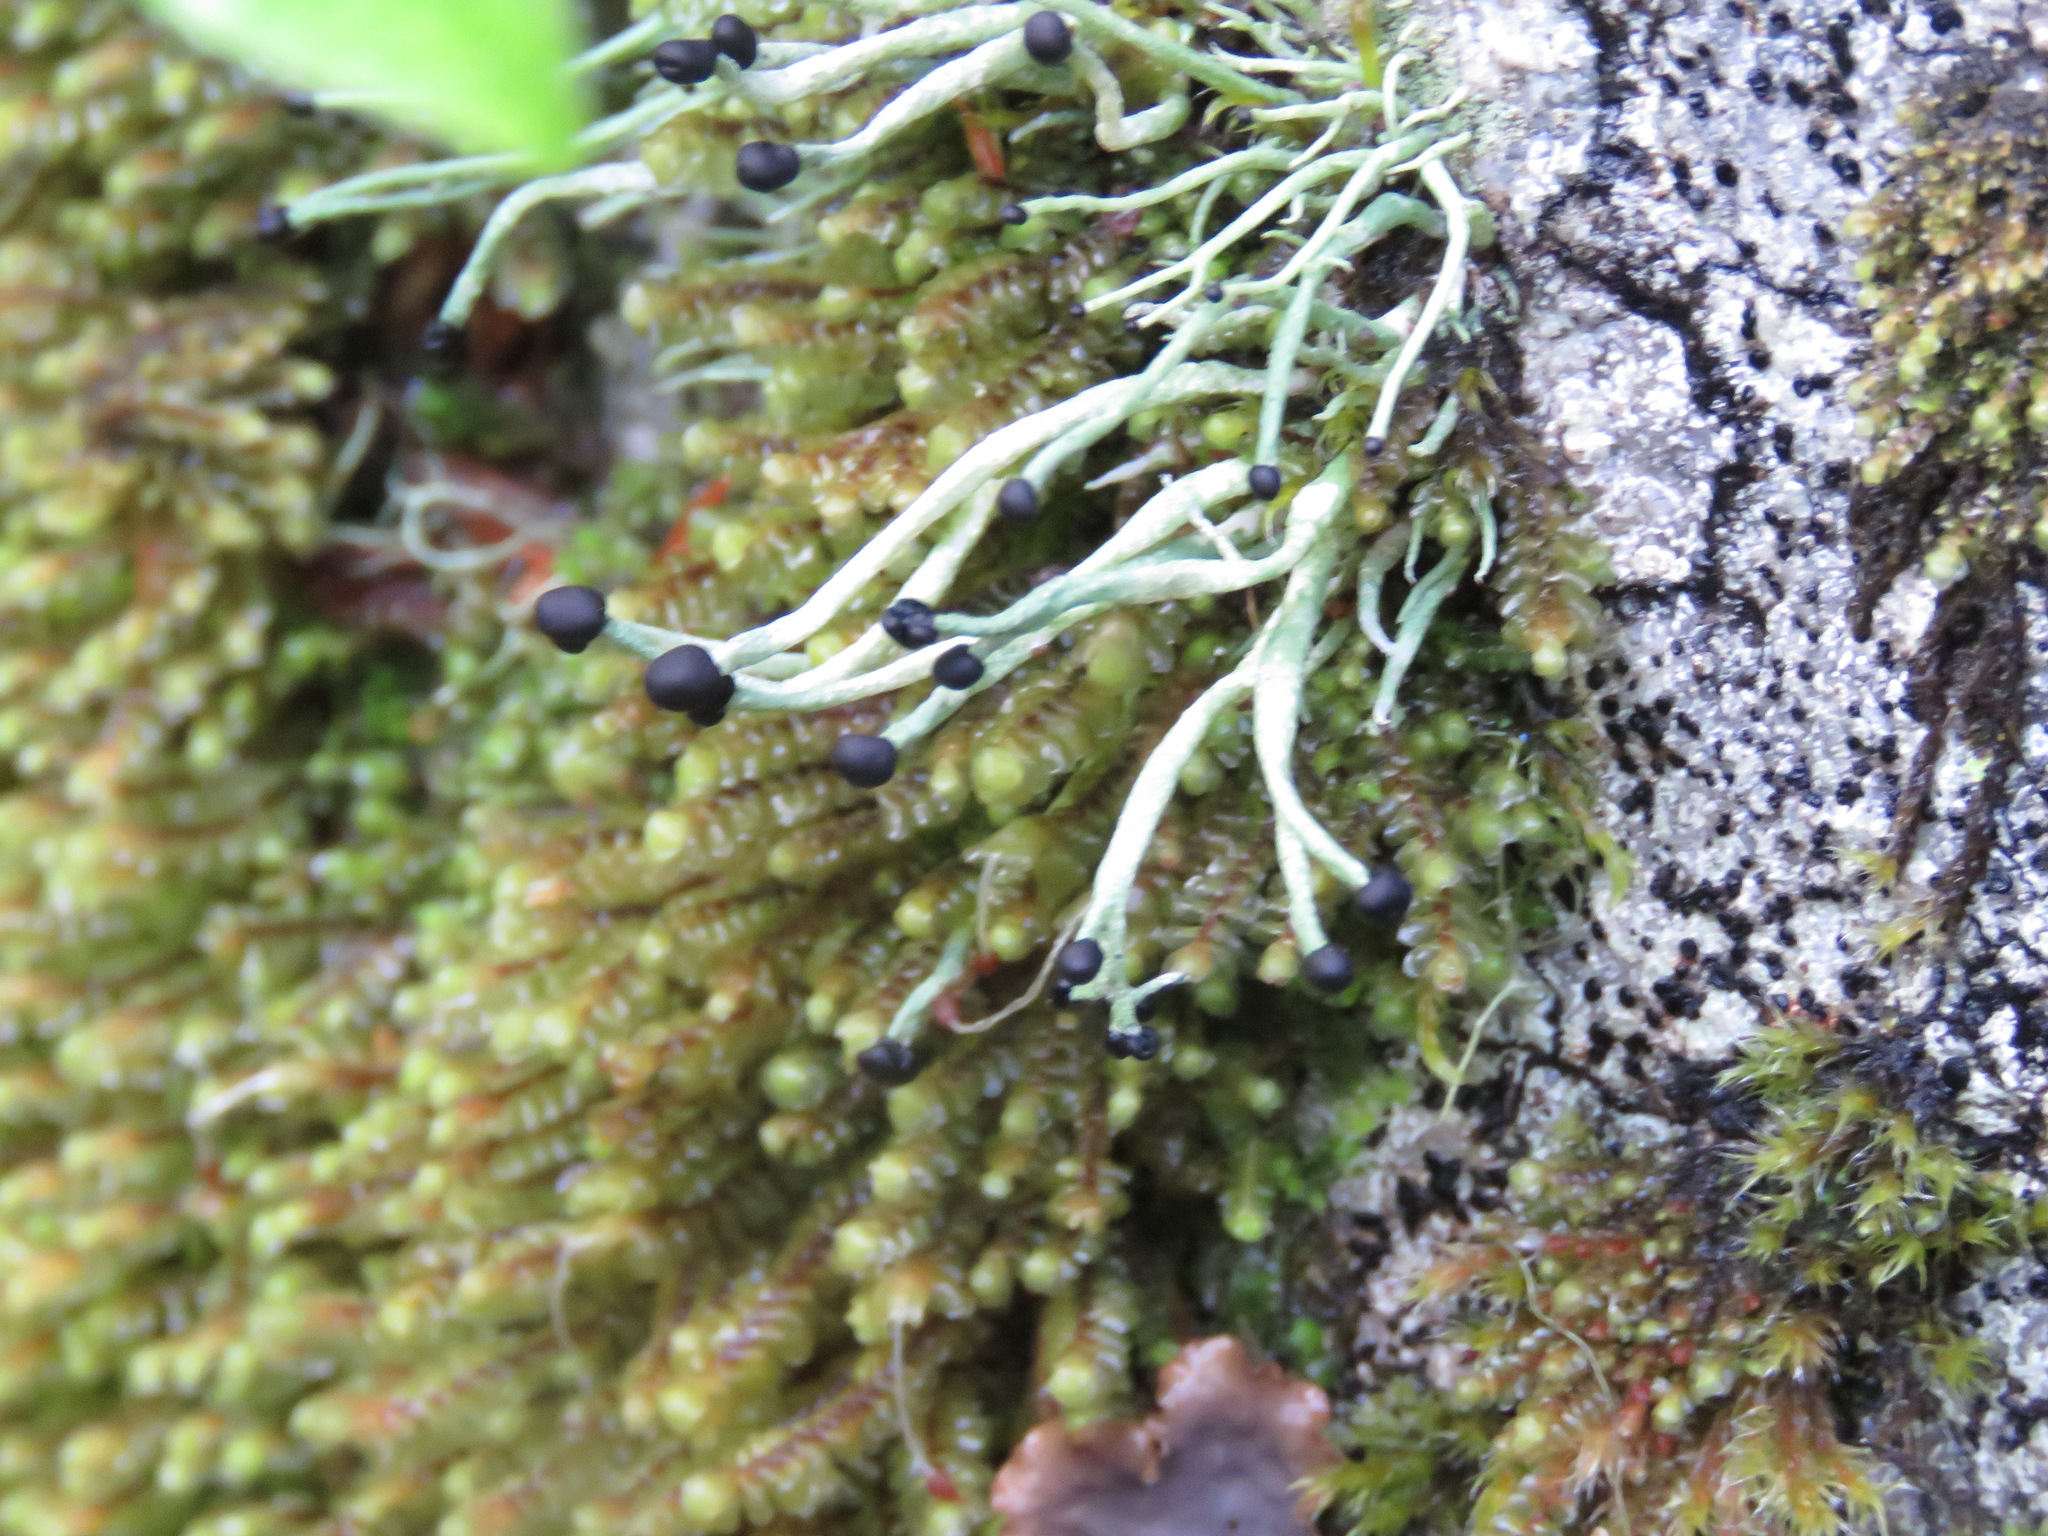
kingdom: Fungi
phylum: Ascomycota
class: Lecanoromycetes
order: Lecanorales
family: Cladoniaceae
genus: Pilophorus
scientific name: Pilophorus acicularis
